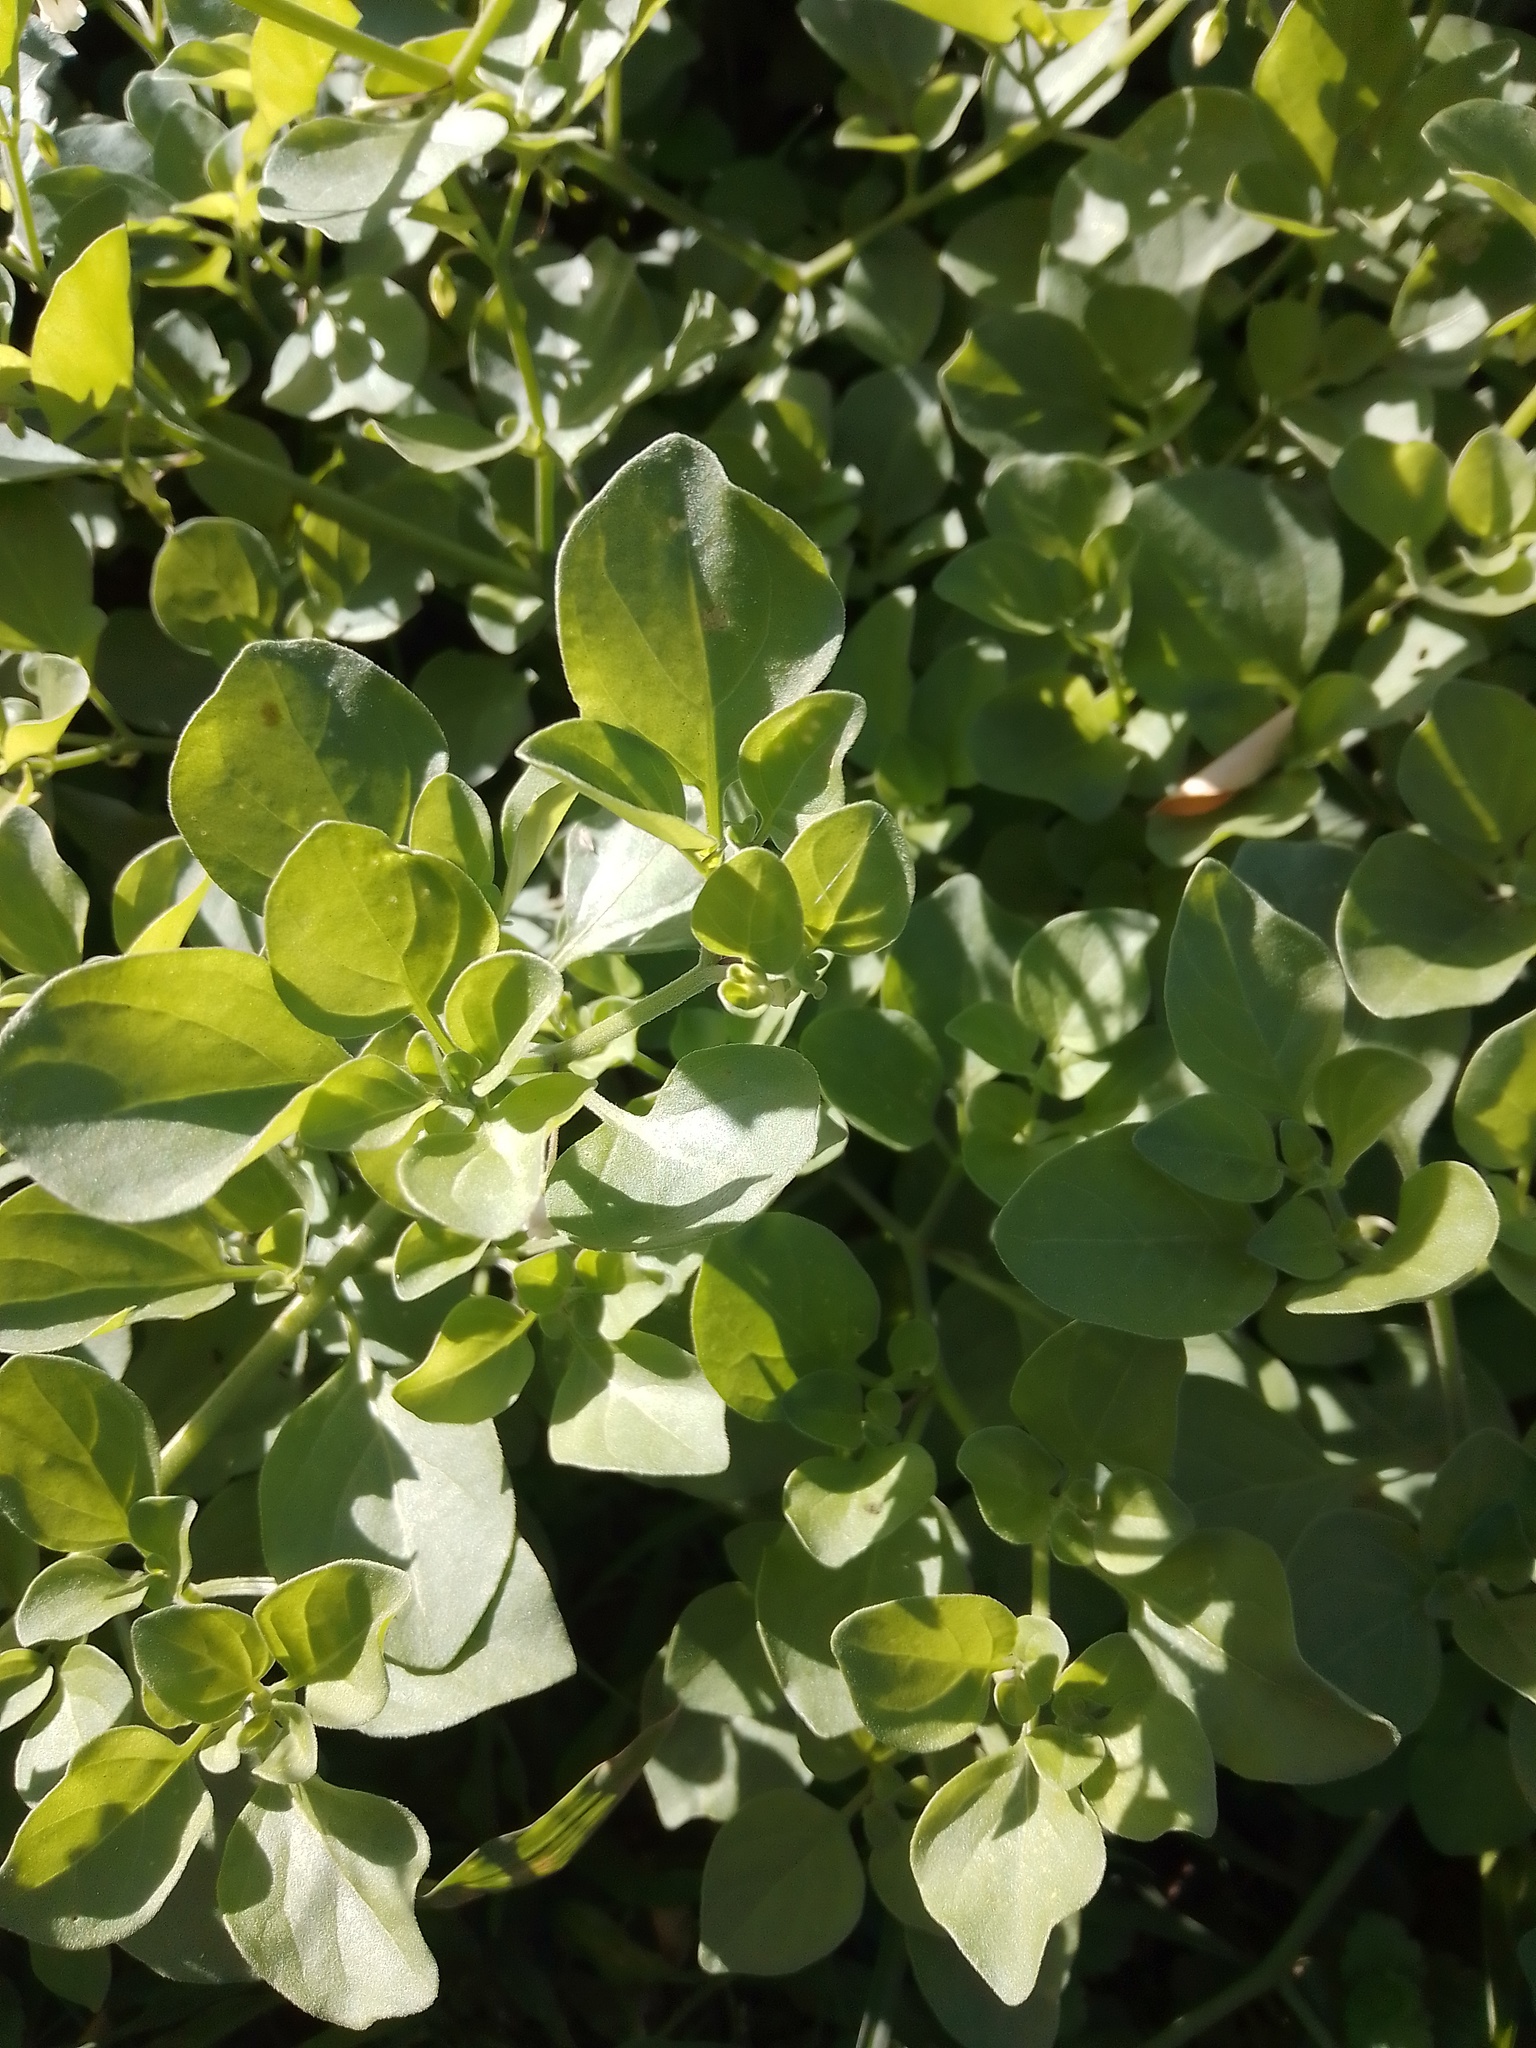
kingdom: Plantae
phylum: Tracheophyta
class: Magnoliopsida
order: Solanales
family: Solanaceae
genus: Salpichroa
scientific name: Salpichroa origanifolia
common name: Lily-of-the-valley-vine
